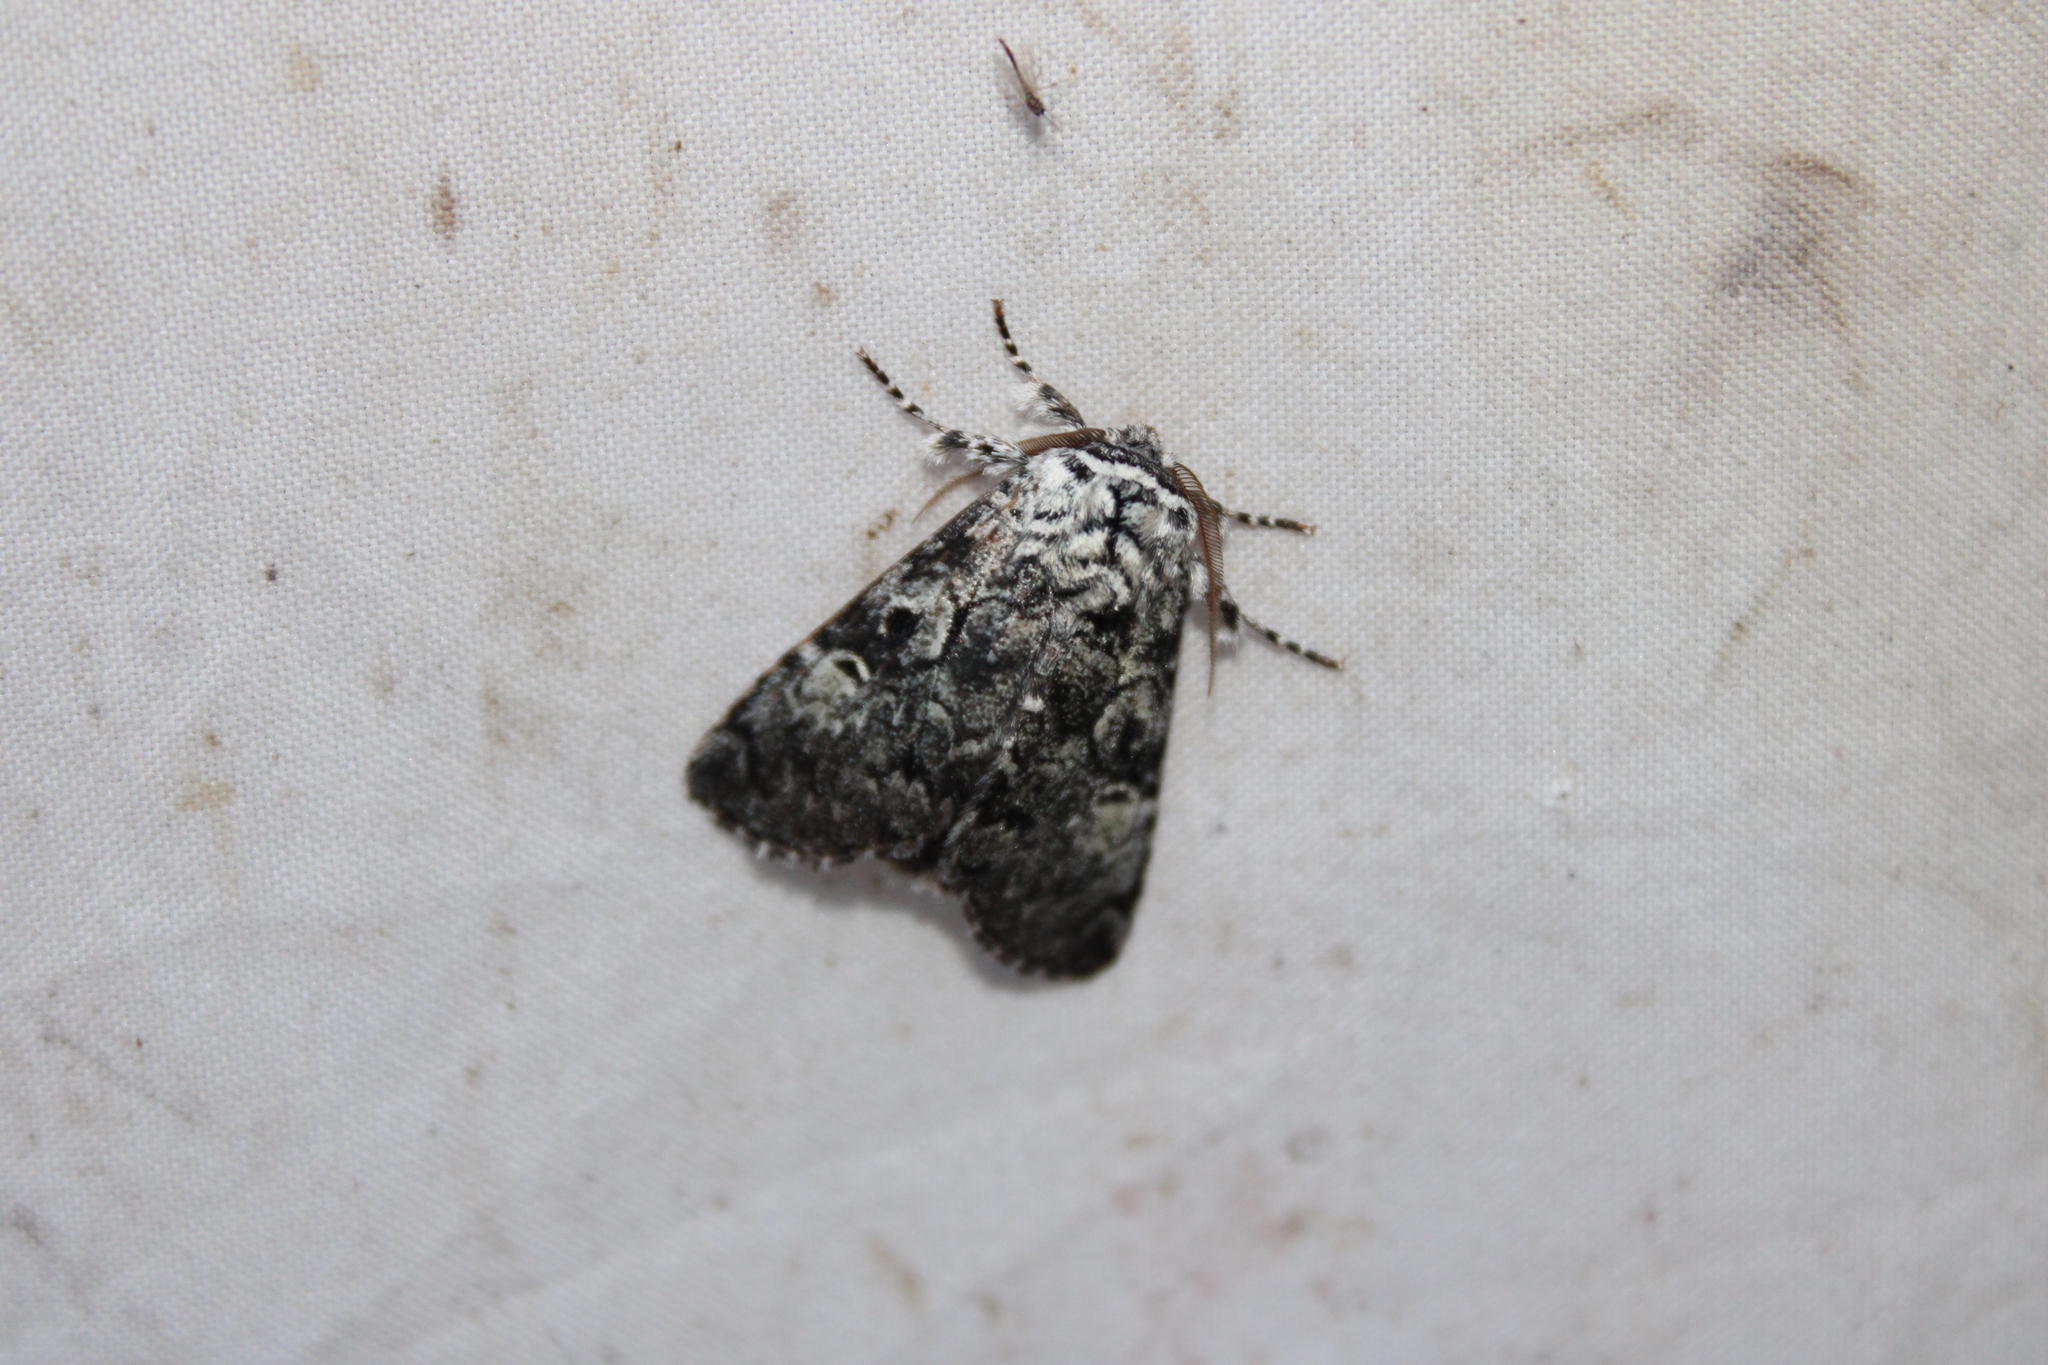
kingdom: Animalia
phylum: Arthropoda
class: Insecta
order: Lepidoptera
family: Noctuidae
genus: Raphia
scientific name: Raphia frater
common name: Brother
